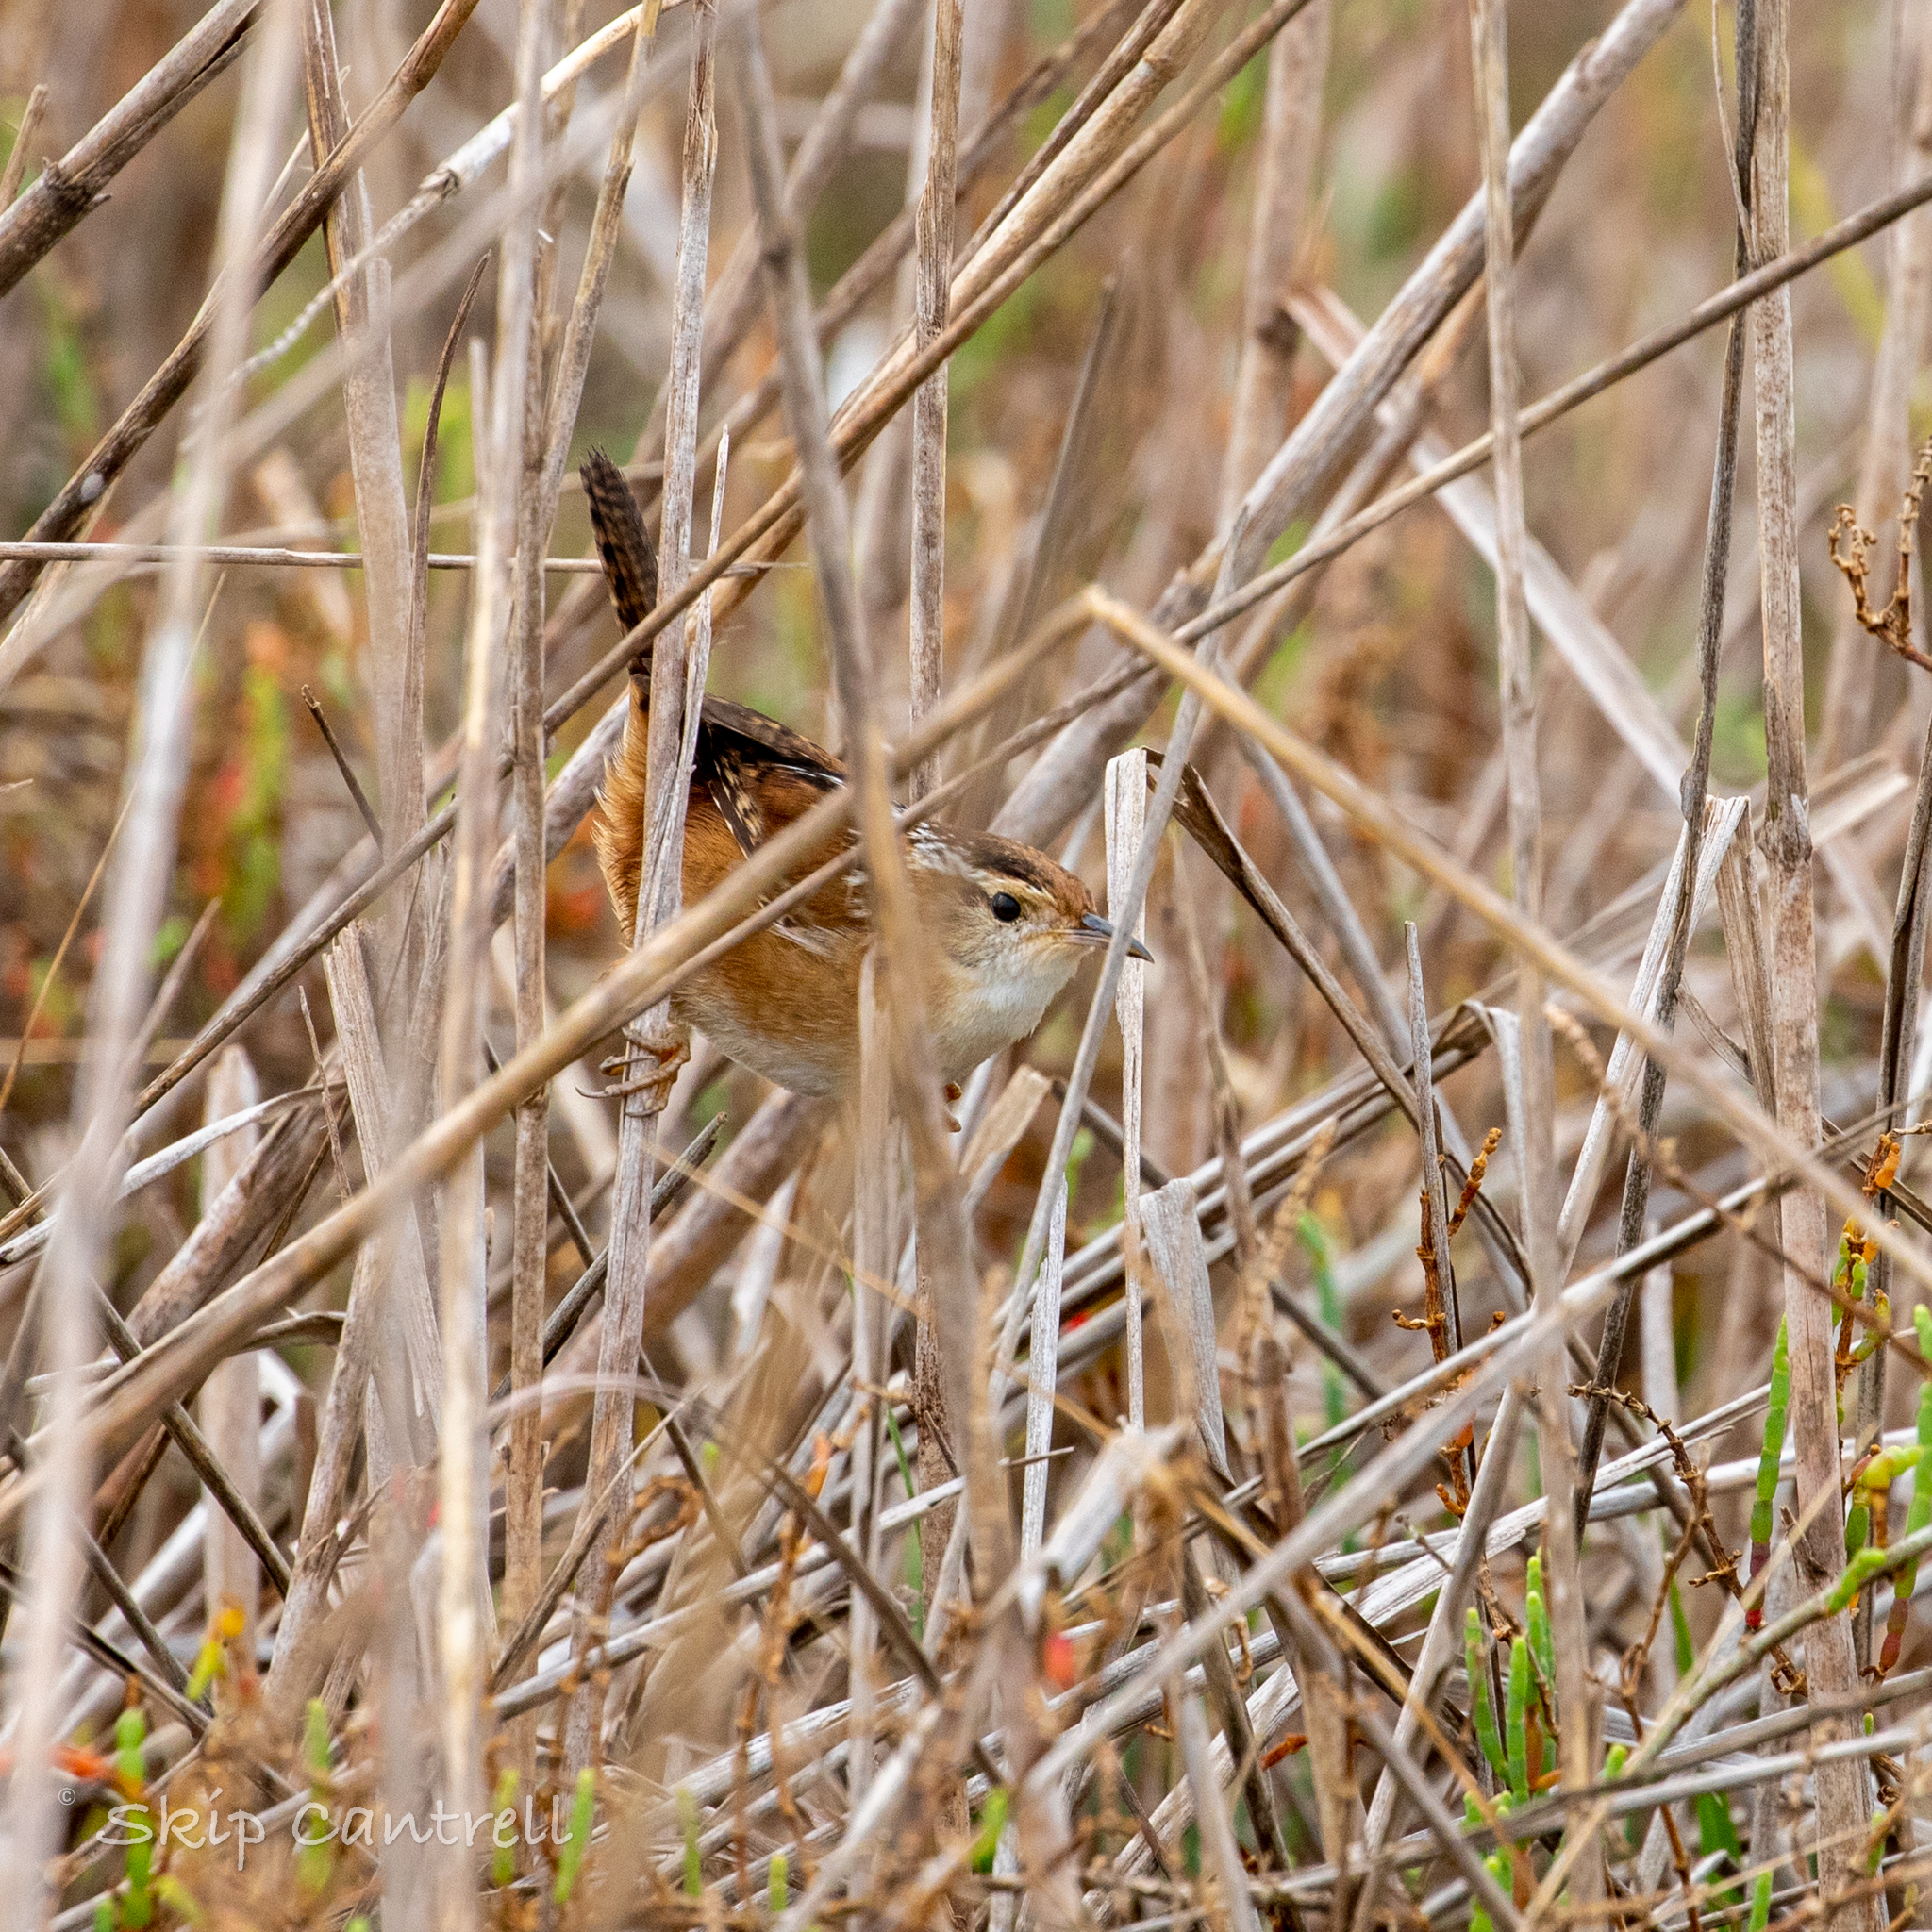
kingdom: Animalia
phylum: Chordata
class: Aves
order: Passeriformes
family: Troglodytidae
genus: Cistothorus
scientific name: Cistothorus palustris
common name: Marsh wren
